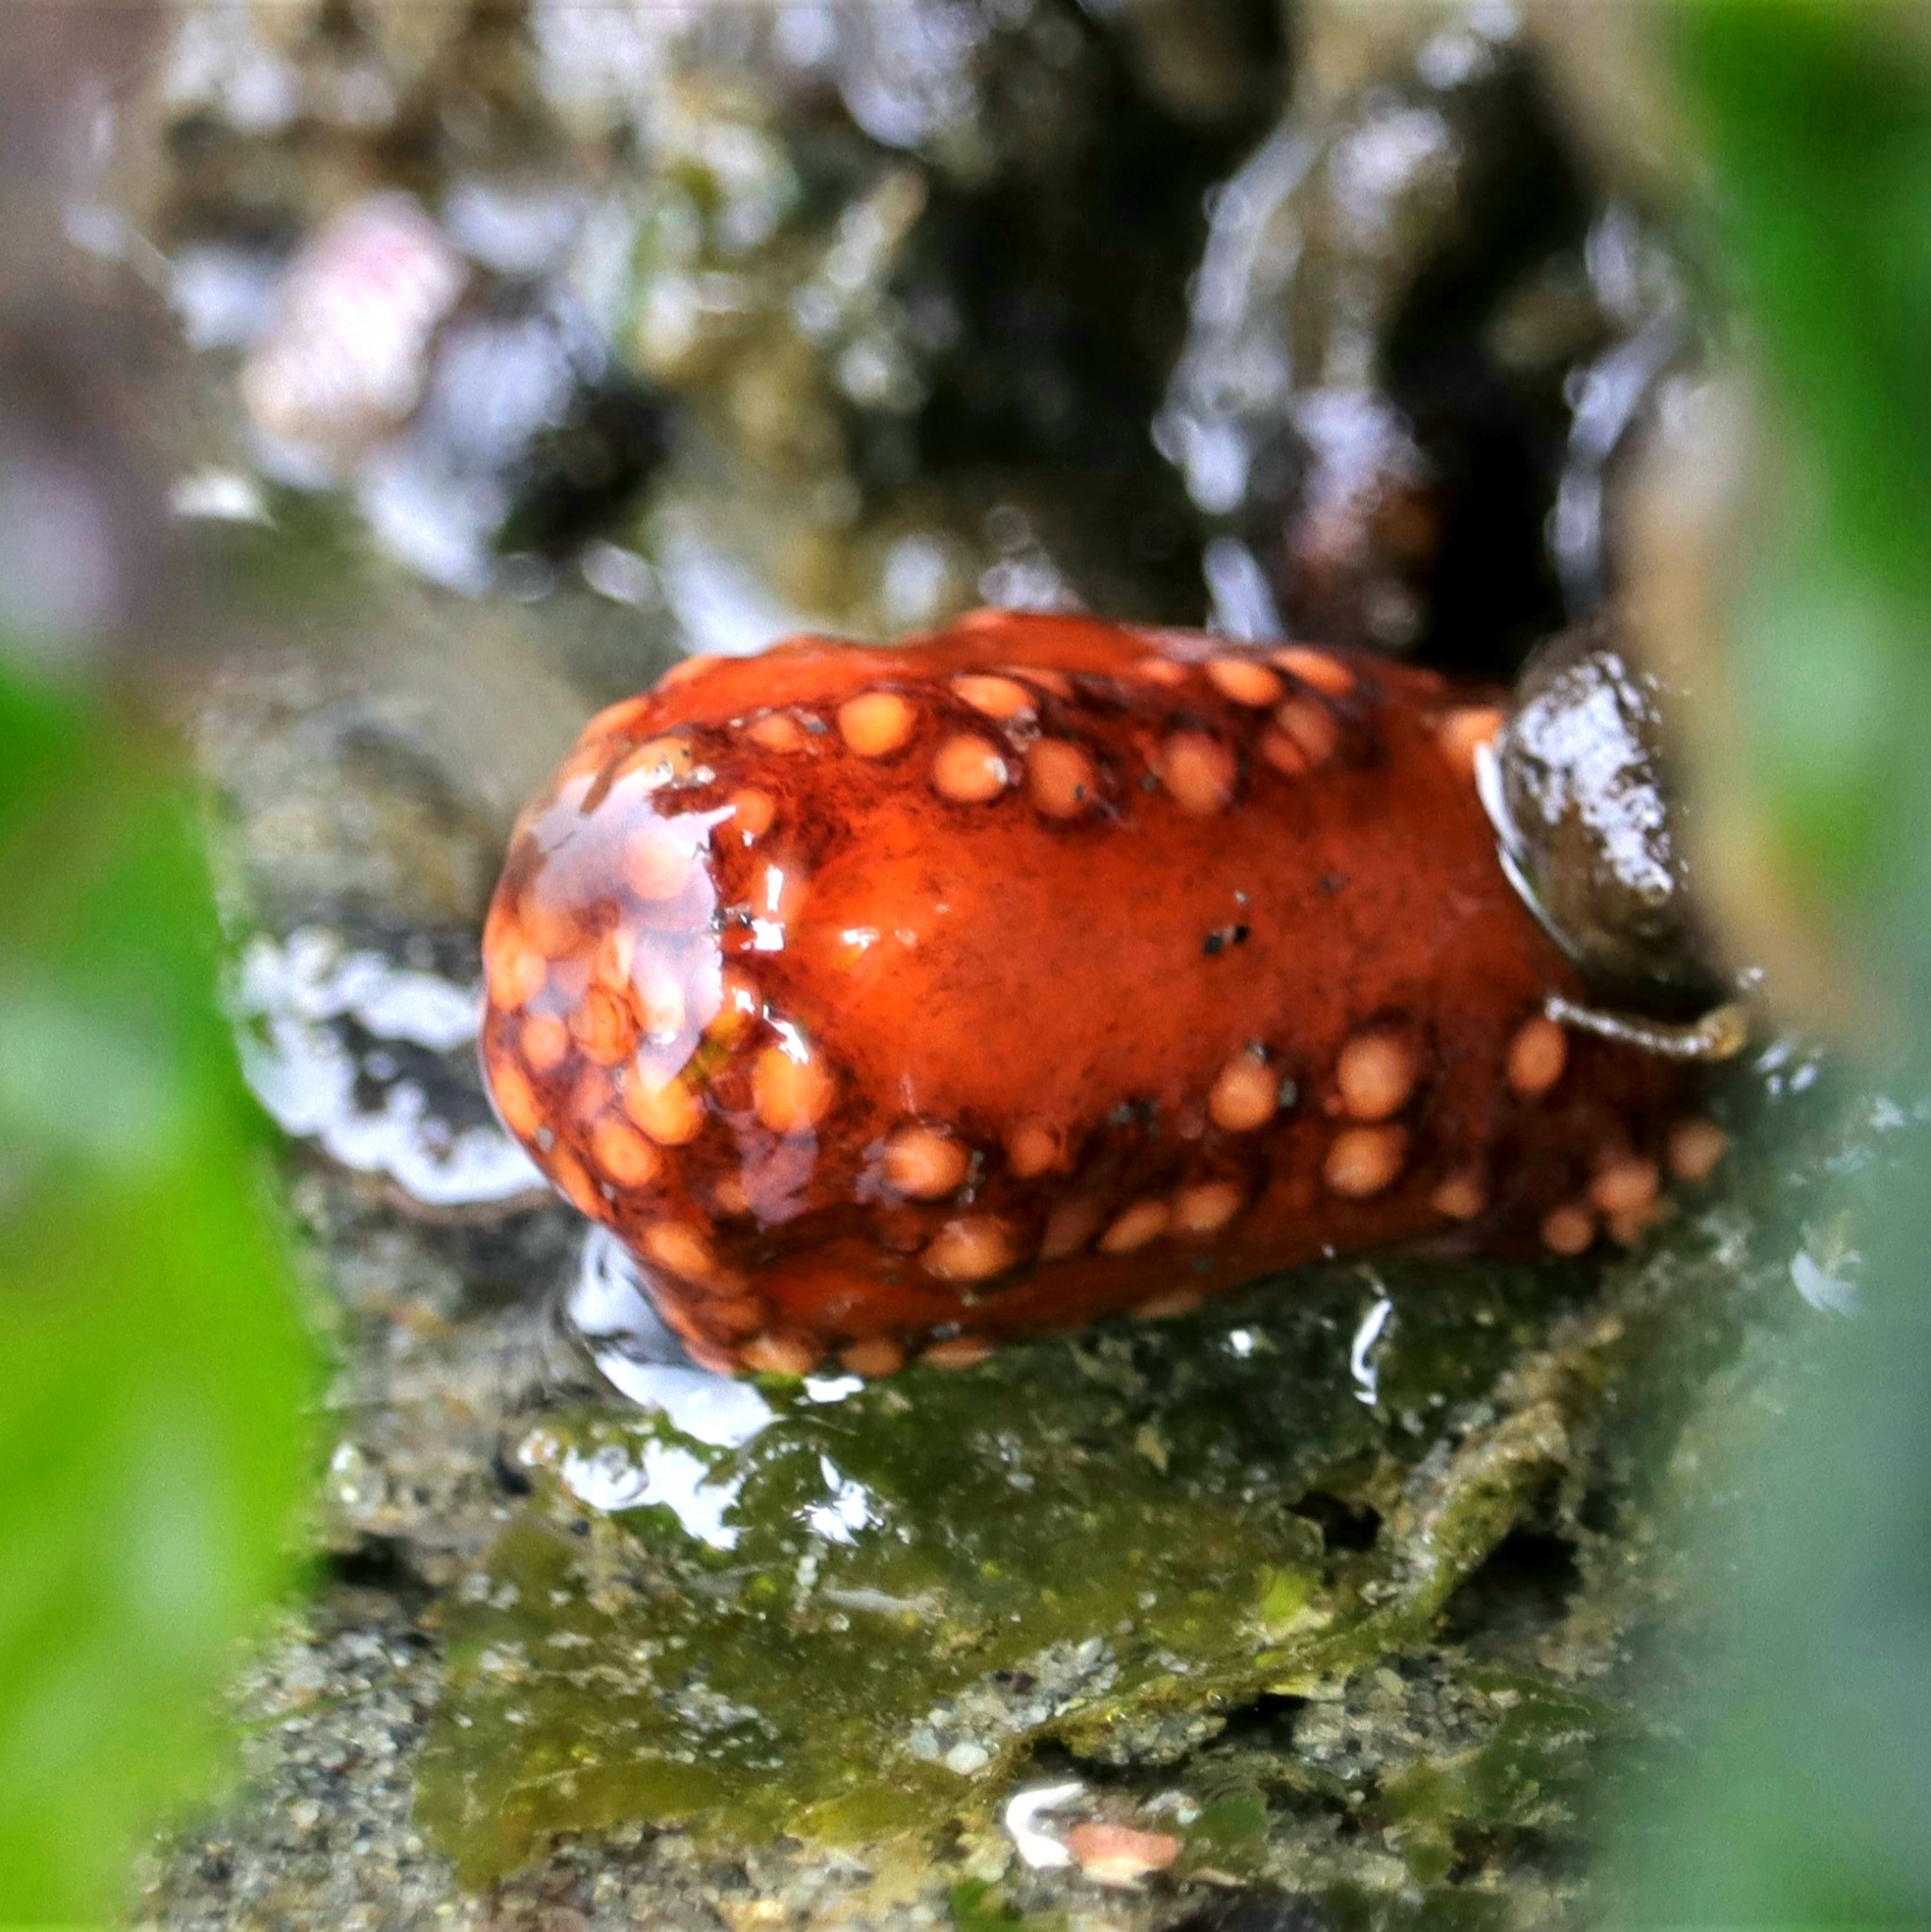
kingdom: Animalia
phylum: Echinodermata
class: Holothuroidea
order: Dendrochirotida
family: Cucumariidae
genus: Cucumaria
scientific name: Cucumaria miniata
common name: Orange sea cucumber
